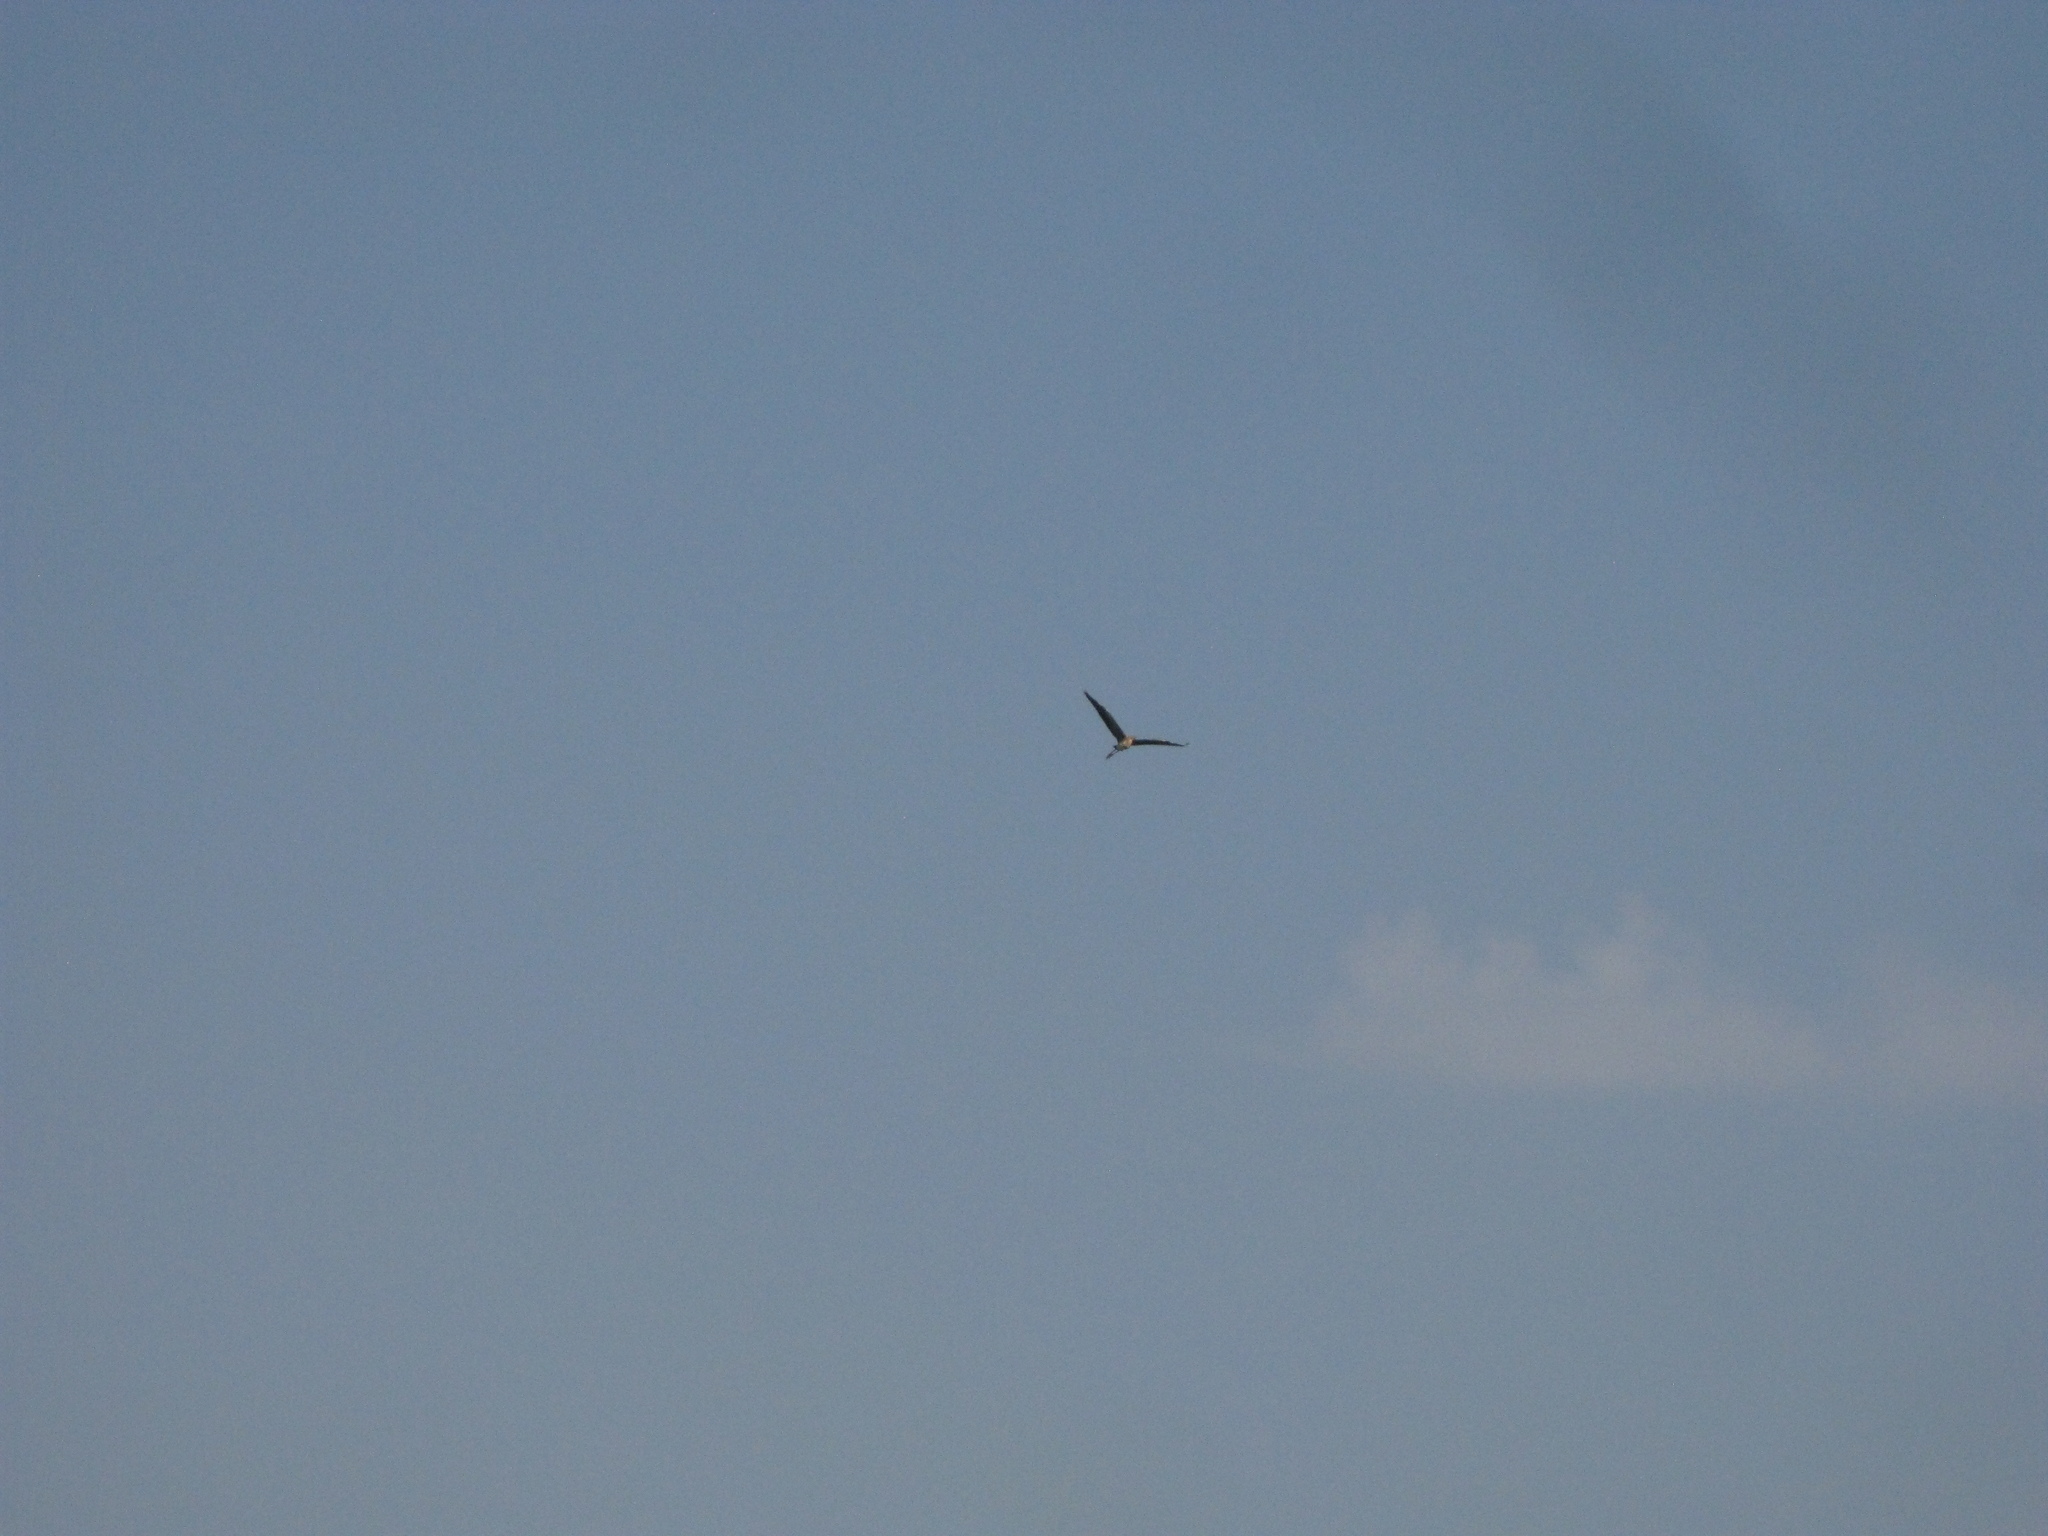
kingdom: Animalia
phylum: Chordata
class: Aves
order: Pelecaniformes
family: Ardeidae
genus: Ardea
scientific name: Ardea purpurea
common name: Purple heron
